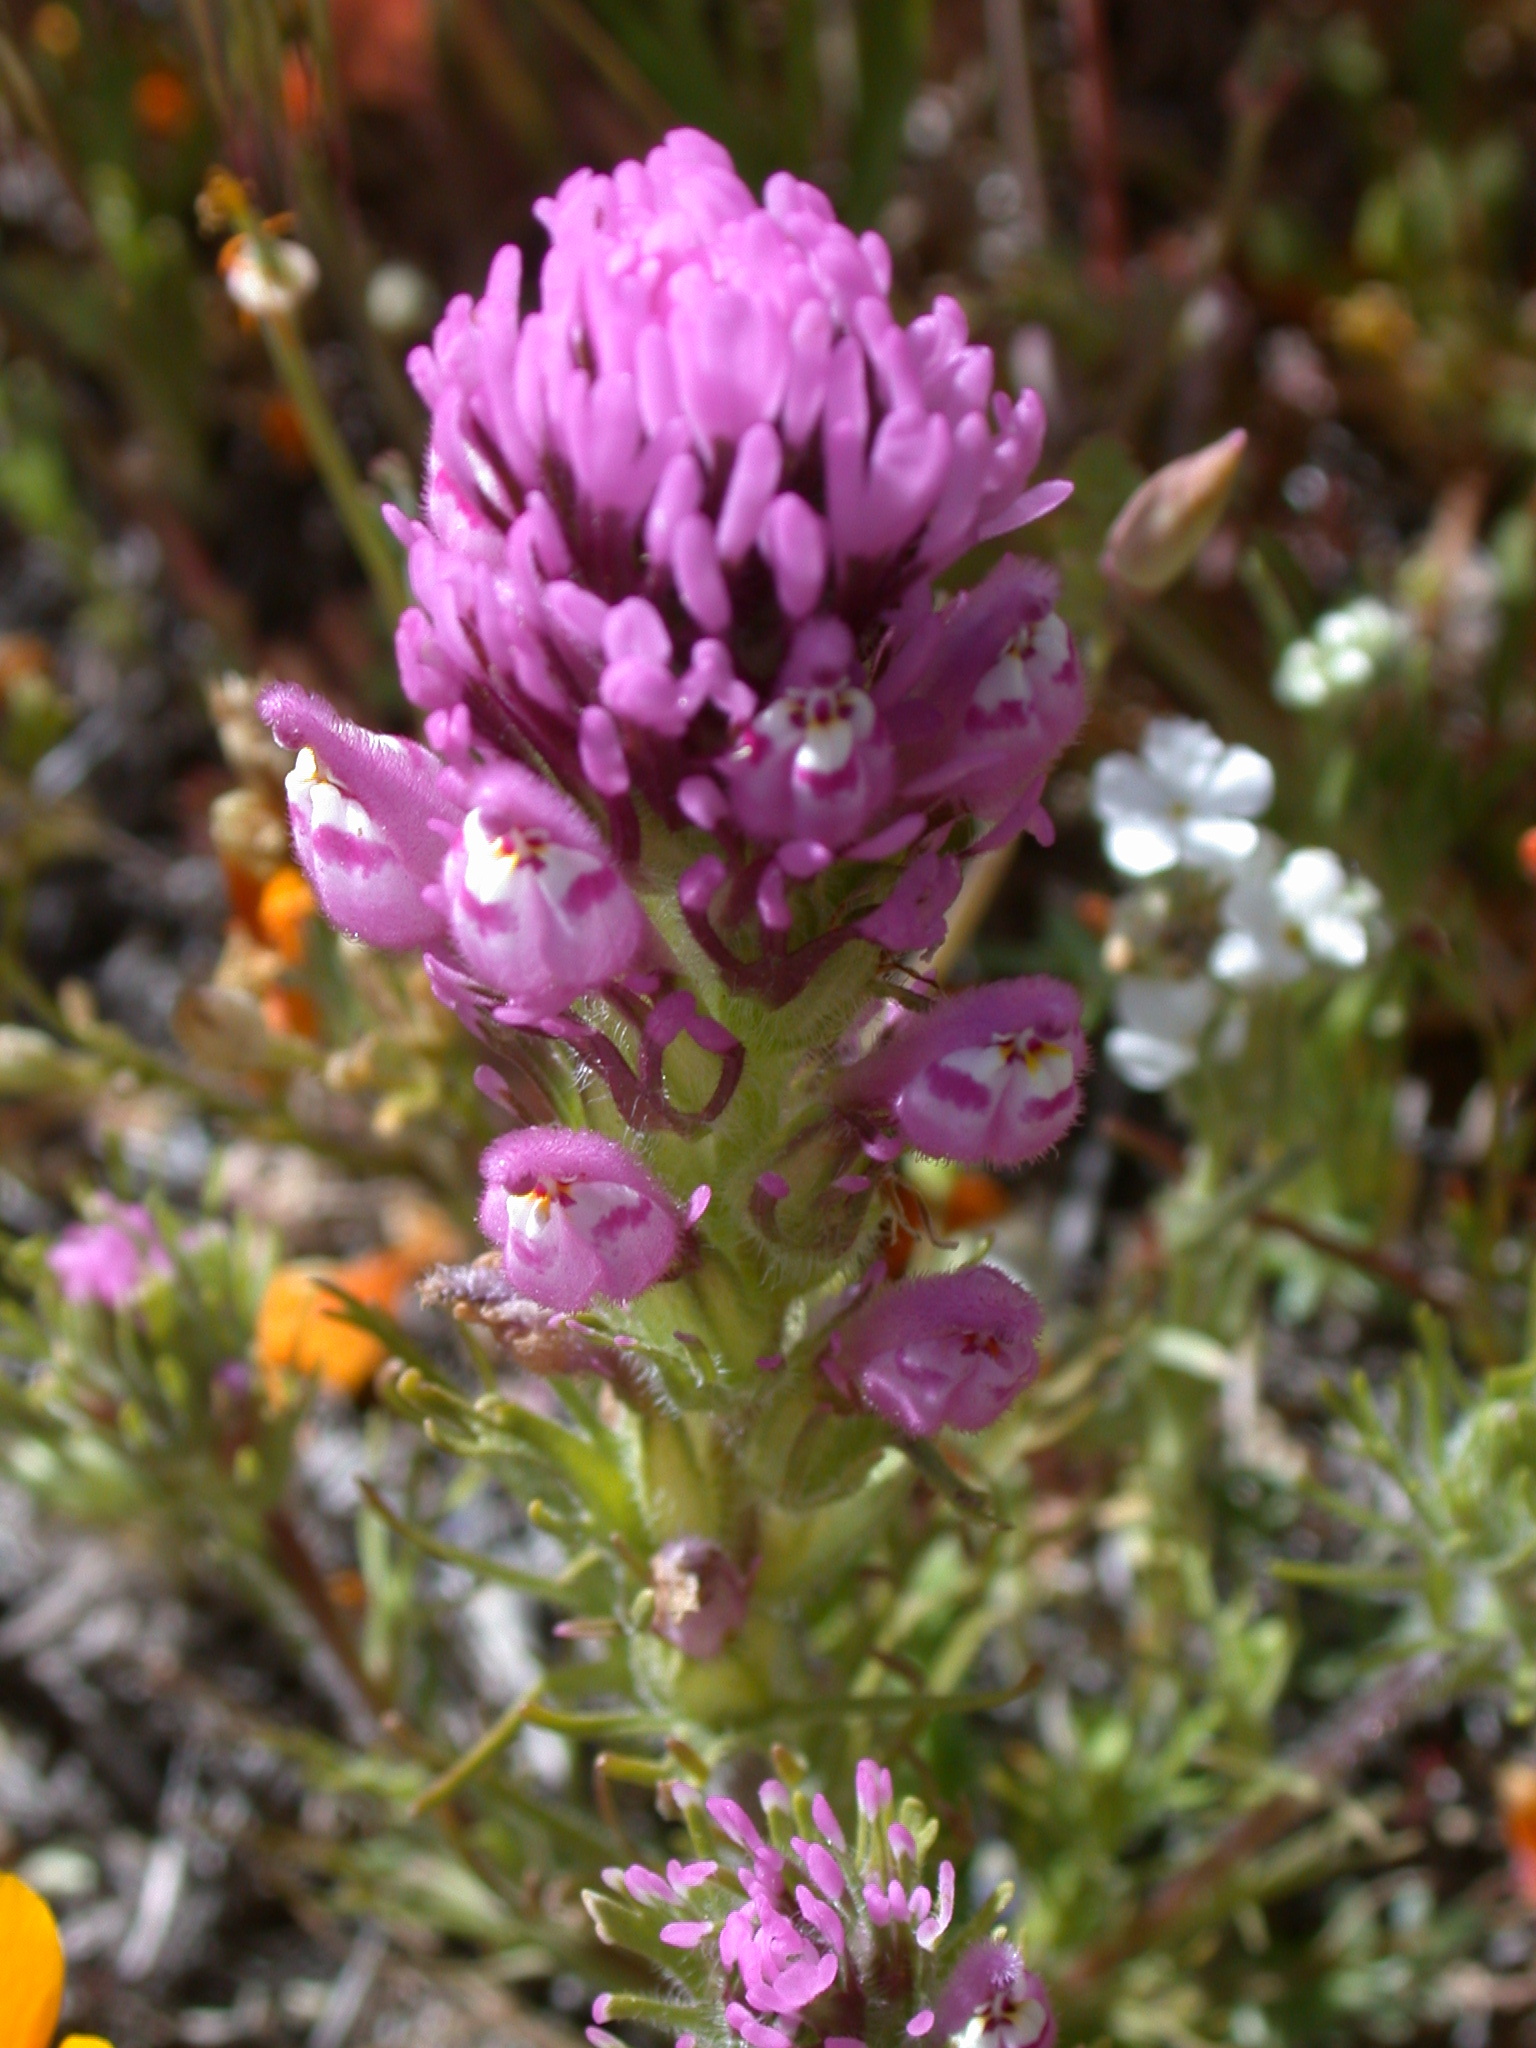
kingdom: Plantae
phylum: Tracheophyta
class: Magnoliopsida
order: Lamiales
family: Orobanchaceae
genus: Castilleja
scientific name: Castilleja exserta
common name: Purple owl-clover
